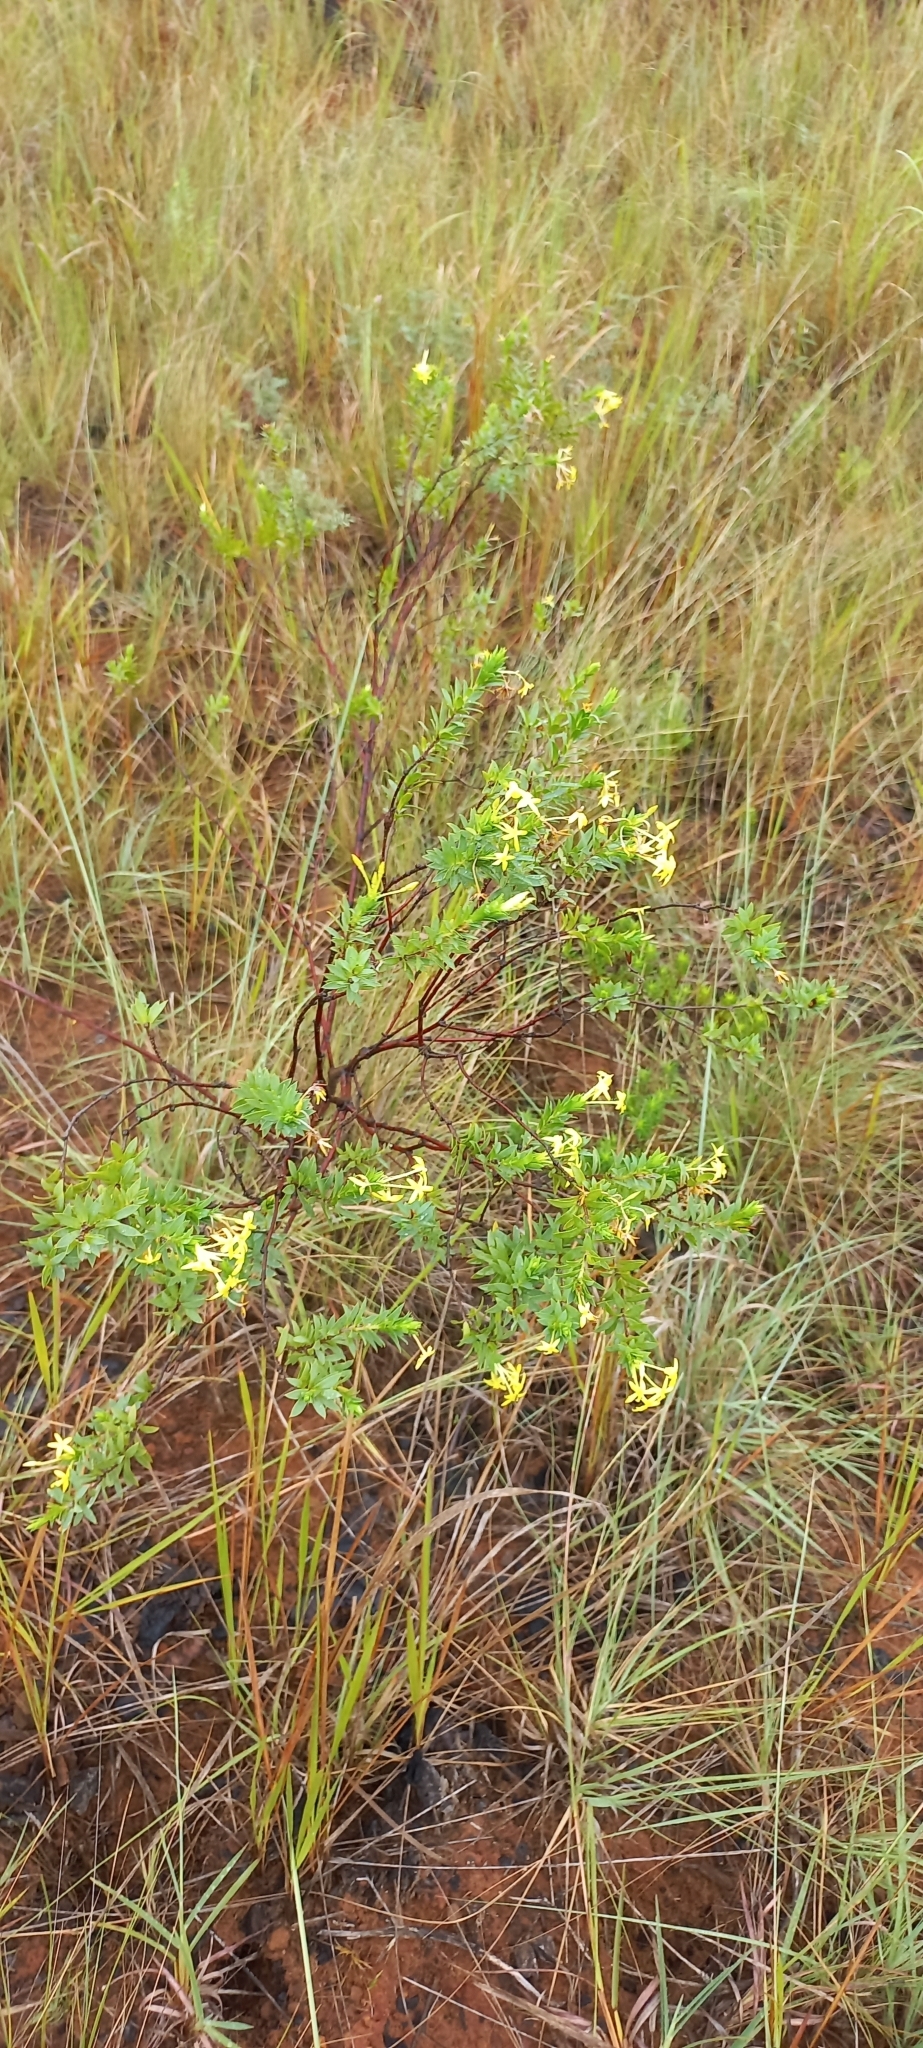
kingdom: Plantae
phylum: Tracheophyta
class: Magnoliopsida
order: Malvales
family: Thymelaeaceae
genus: Gnidia
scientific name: Gnidia triplinervis
